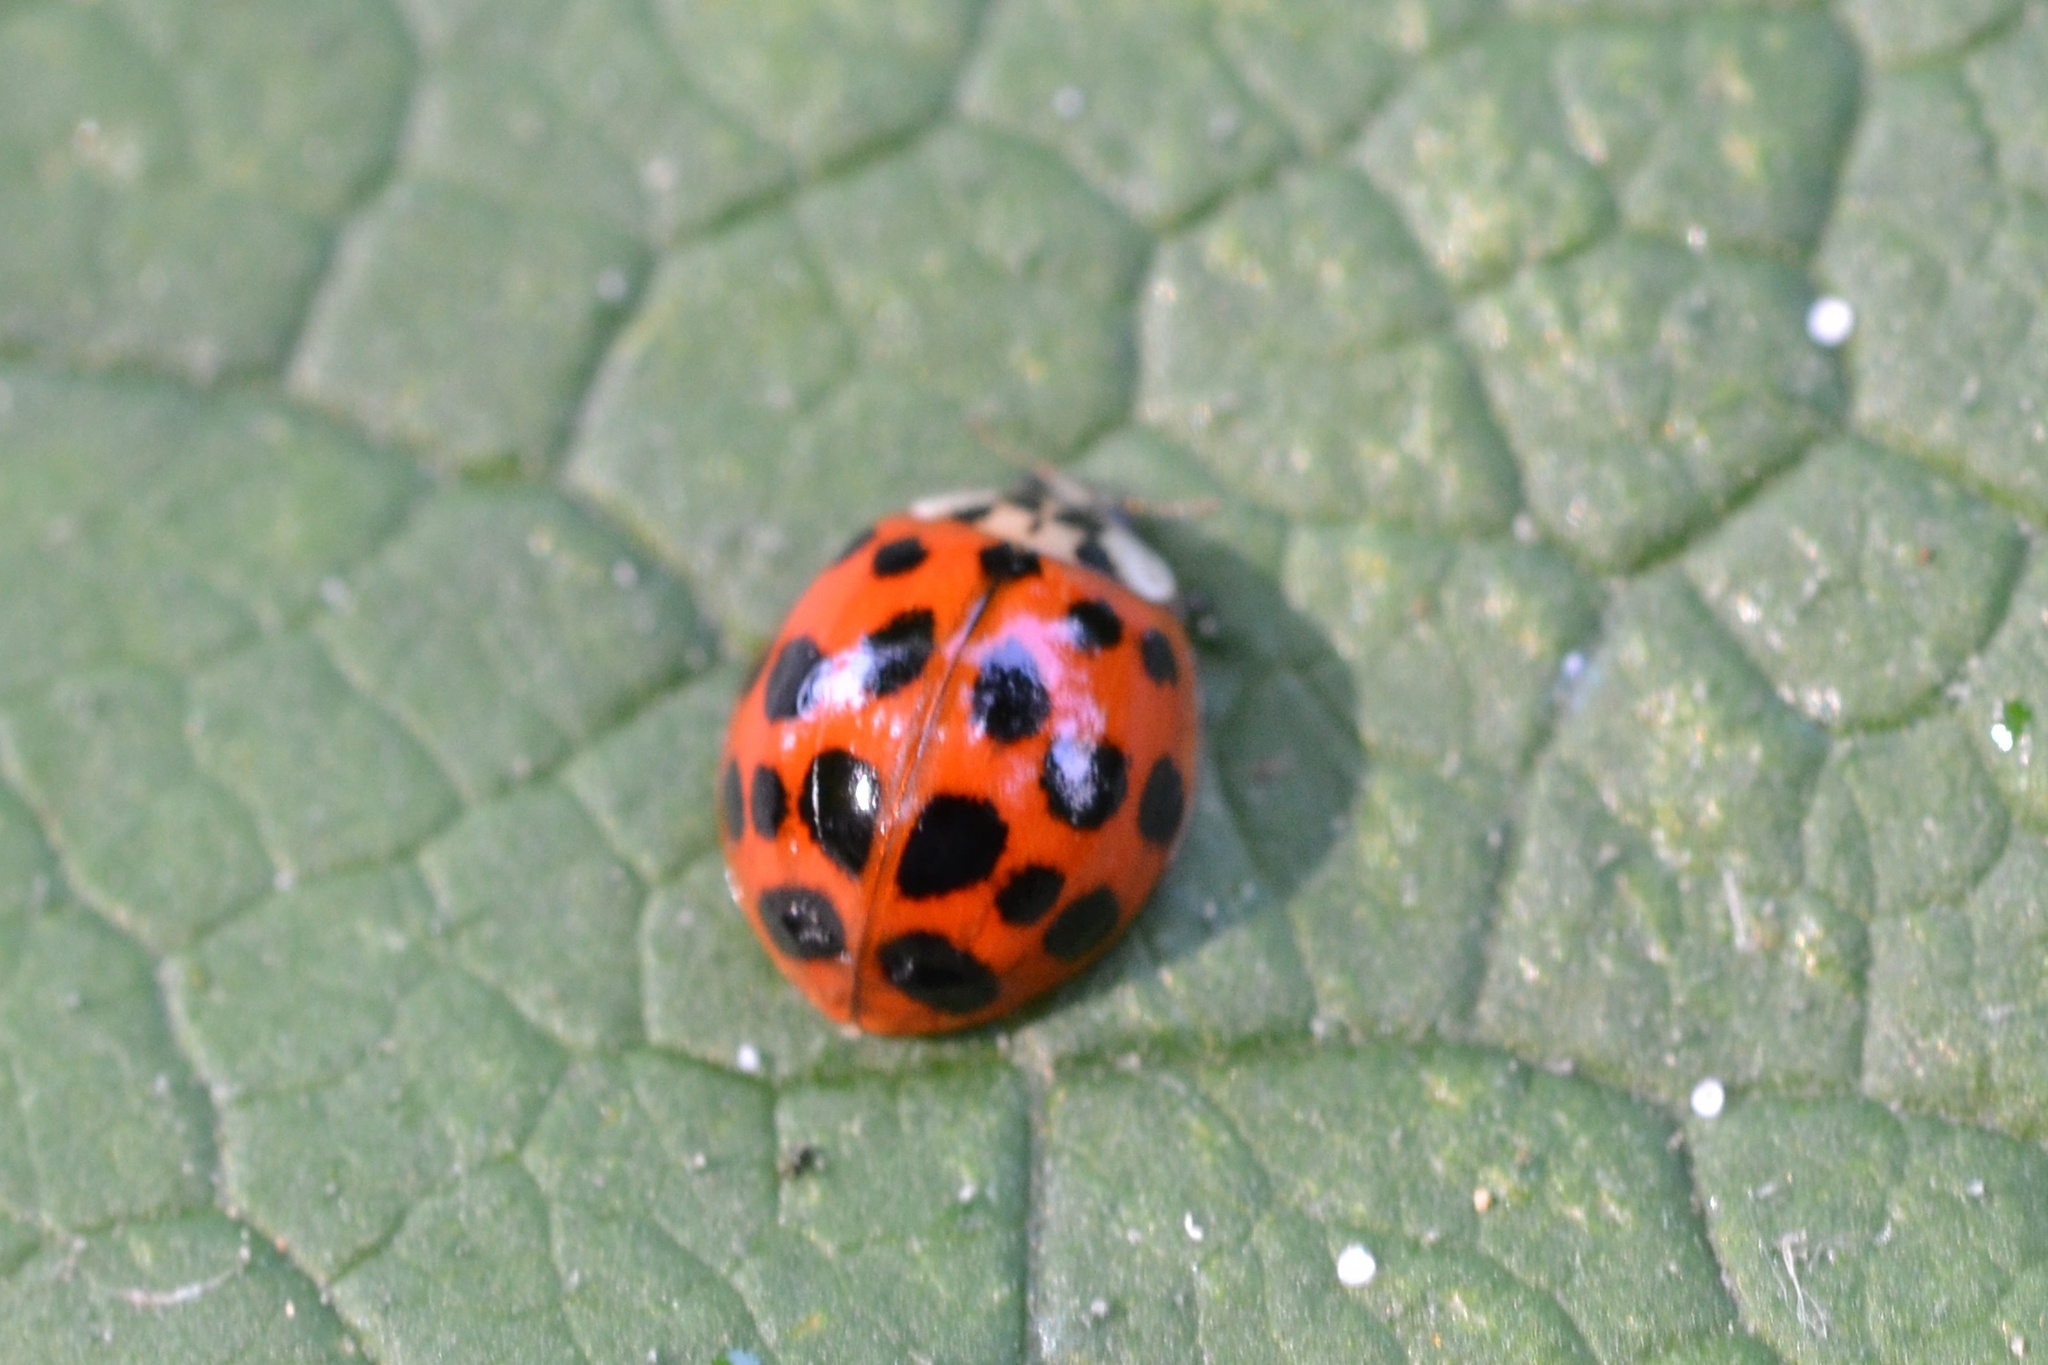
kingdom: Animalia
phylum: Arthropoda
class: Insecta
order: Coleoptera
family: Coccinellidae
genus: Harmonia
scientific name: Harmonia axyridis
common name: Harlequin ladybird
